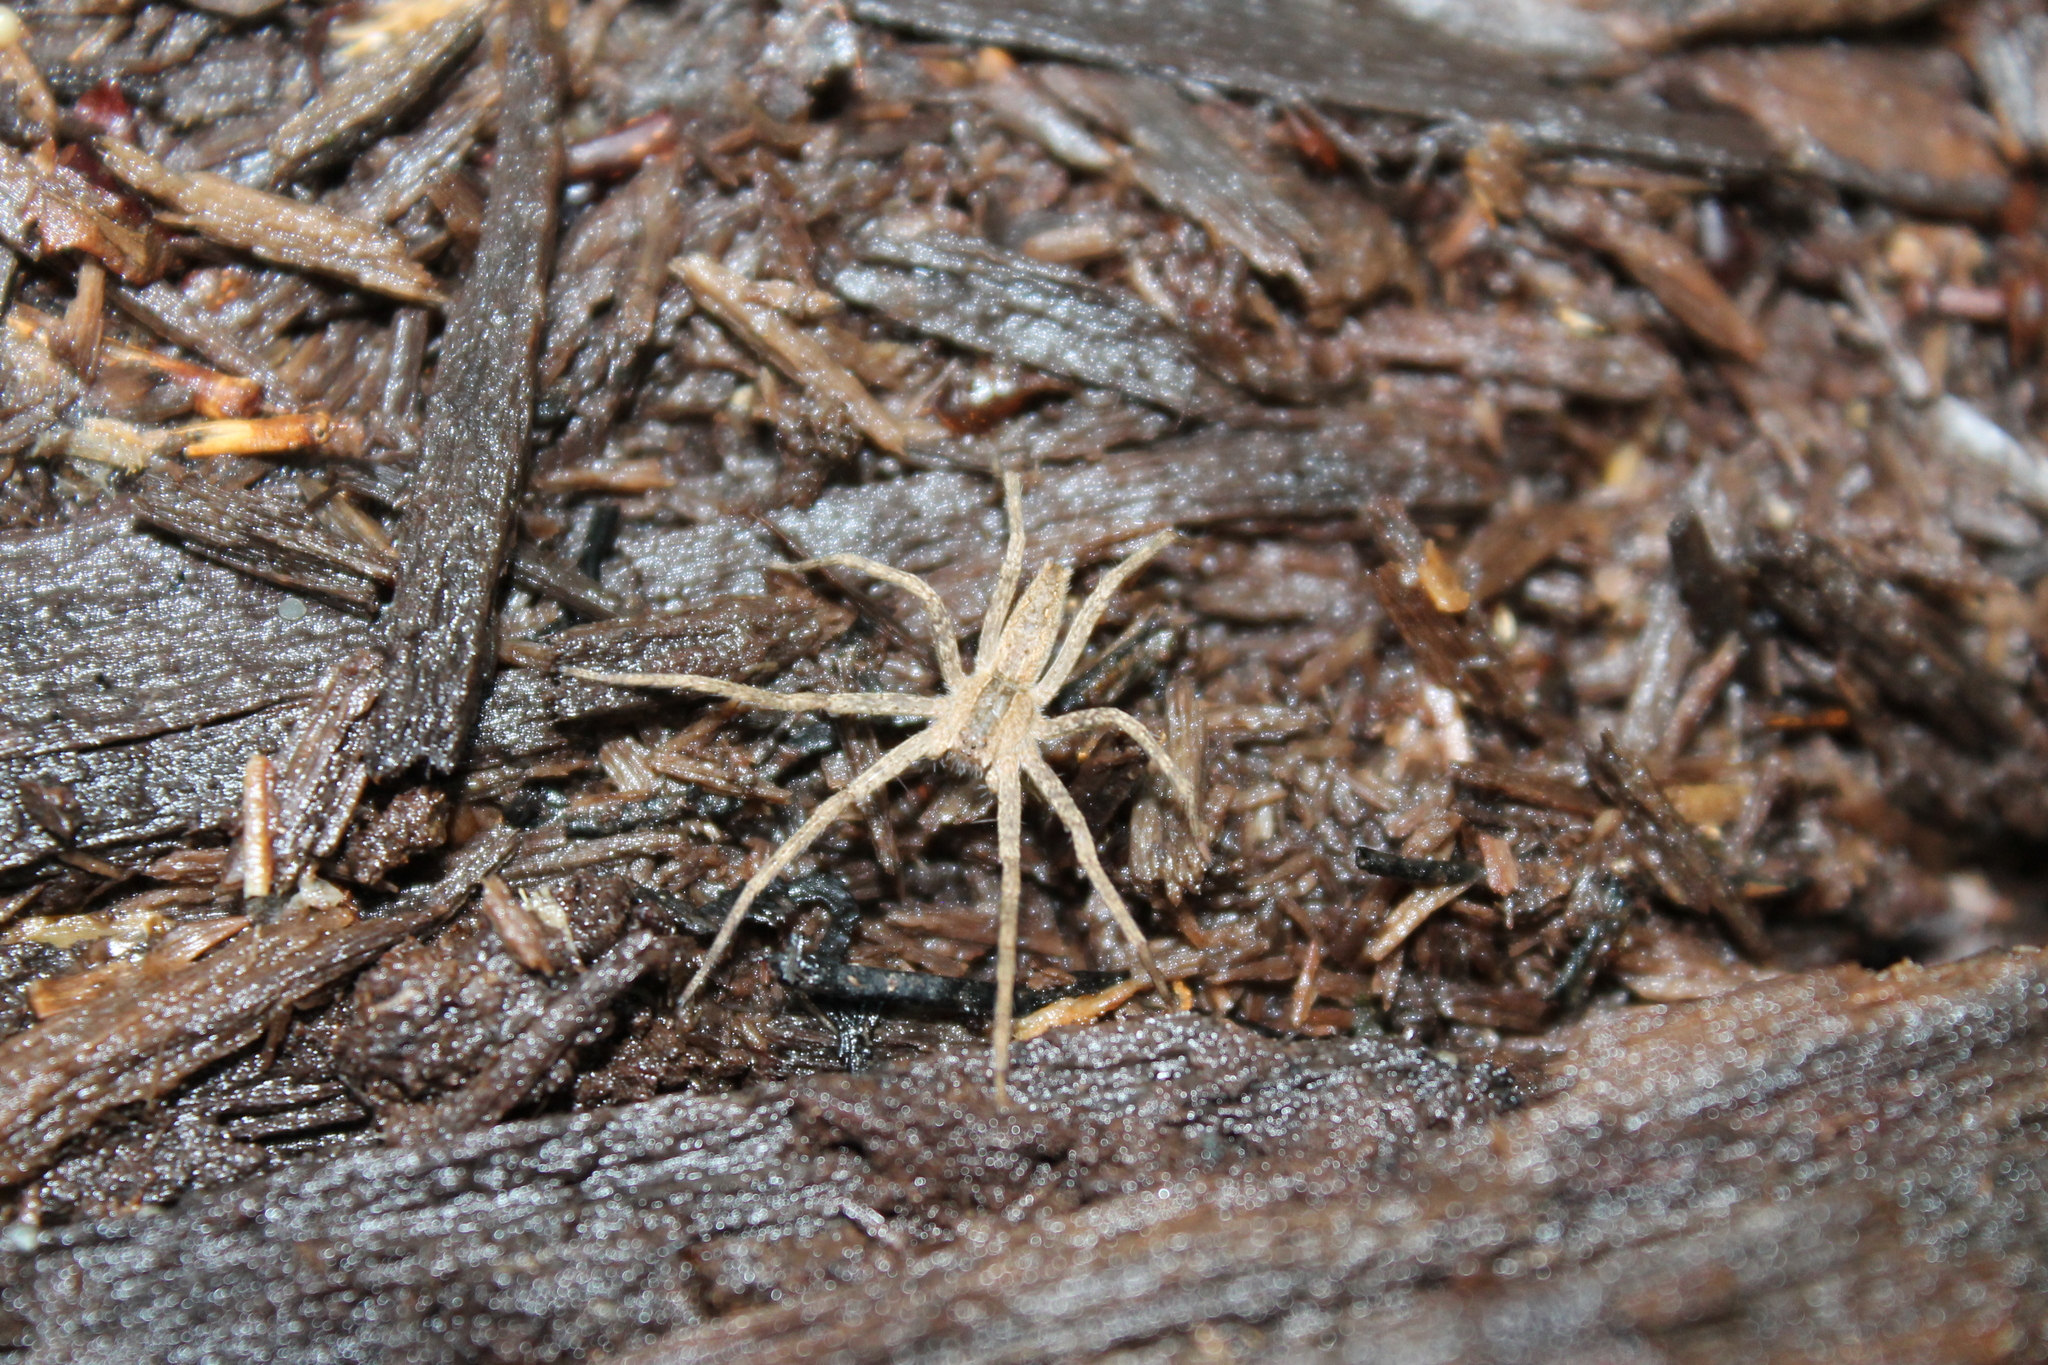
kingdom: Animalia
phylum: Arthropoda
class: Arachnida
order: Araneae
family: Pisauridae
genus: Pisaurina
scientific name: Pisaurina mira
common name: American nursery web spider
